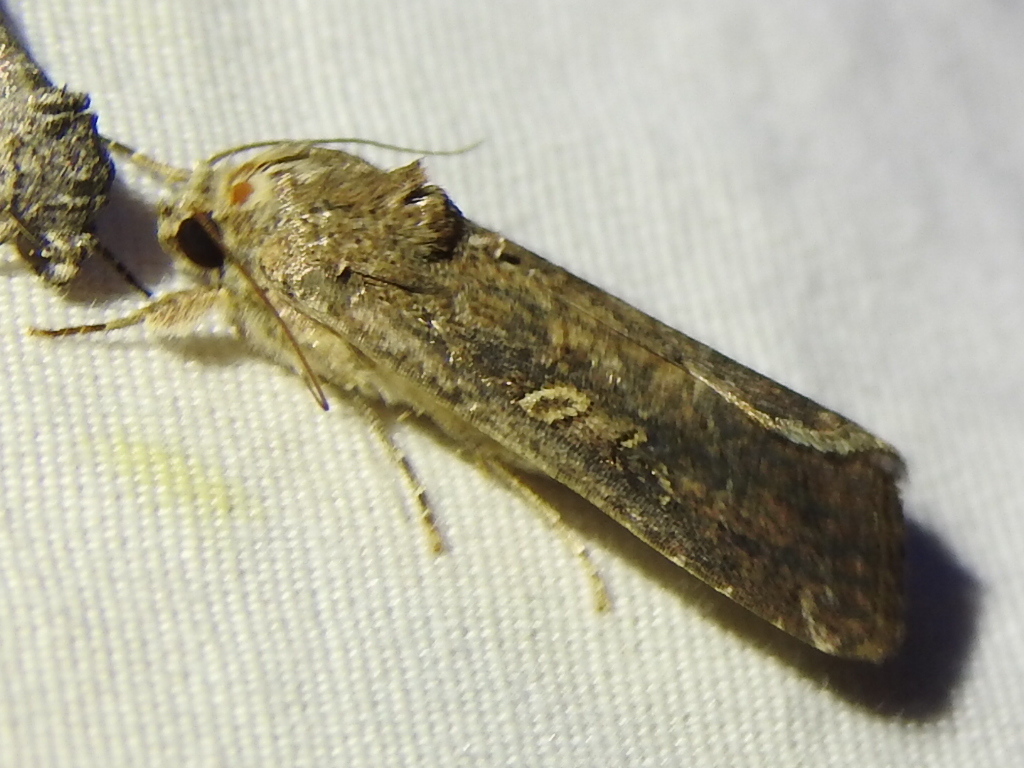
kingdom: Animalia
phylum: Arthropoda
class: Insecta
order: Lepidoptera
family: Noctuidae
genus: Spodoptera
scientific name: Spodoptera frugiperda
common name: Fall armyworm
